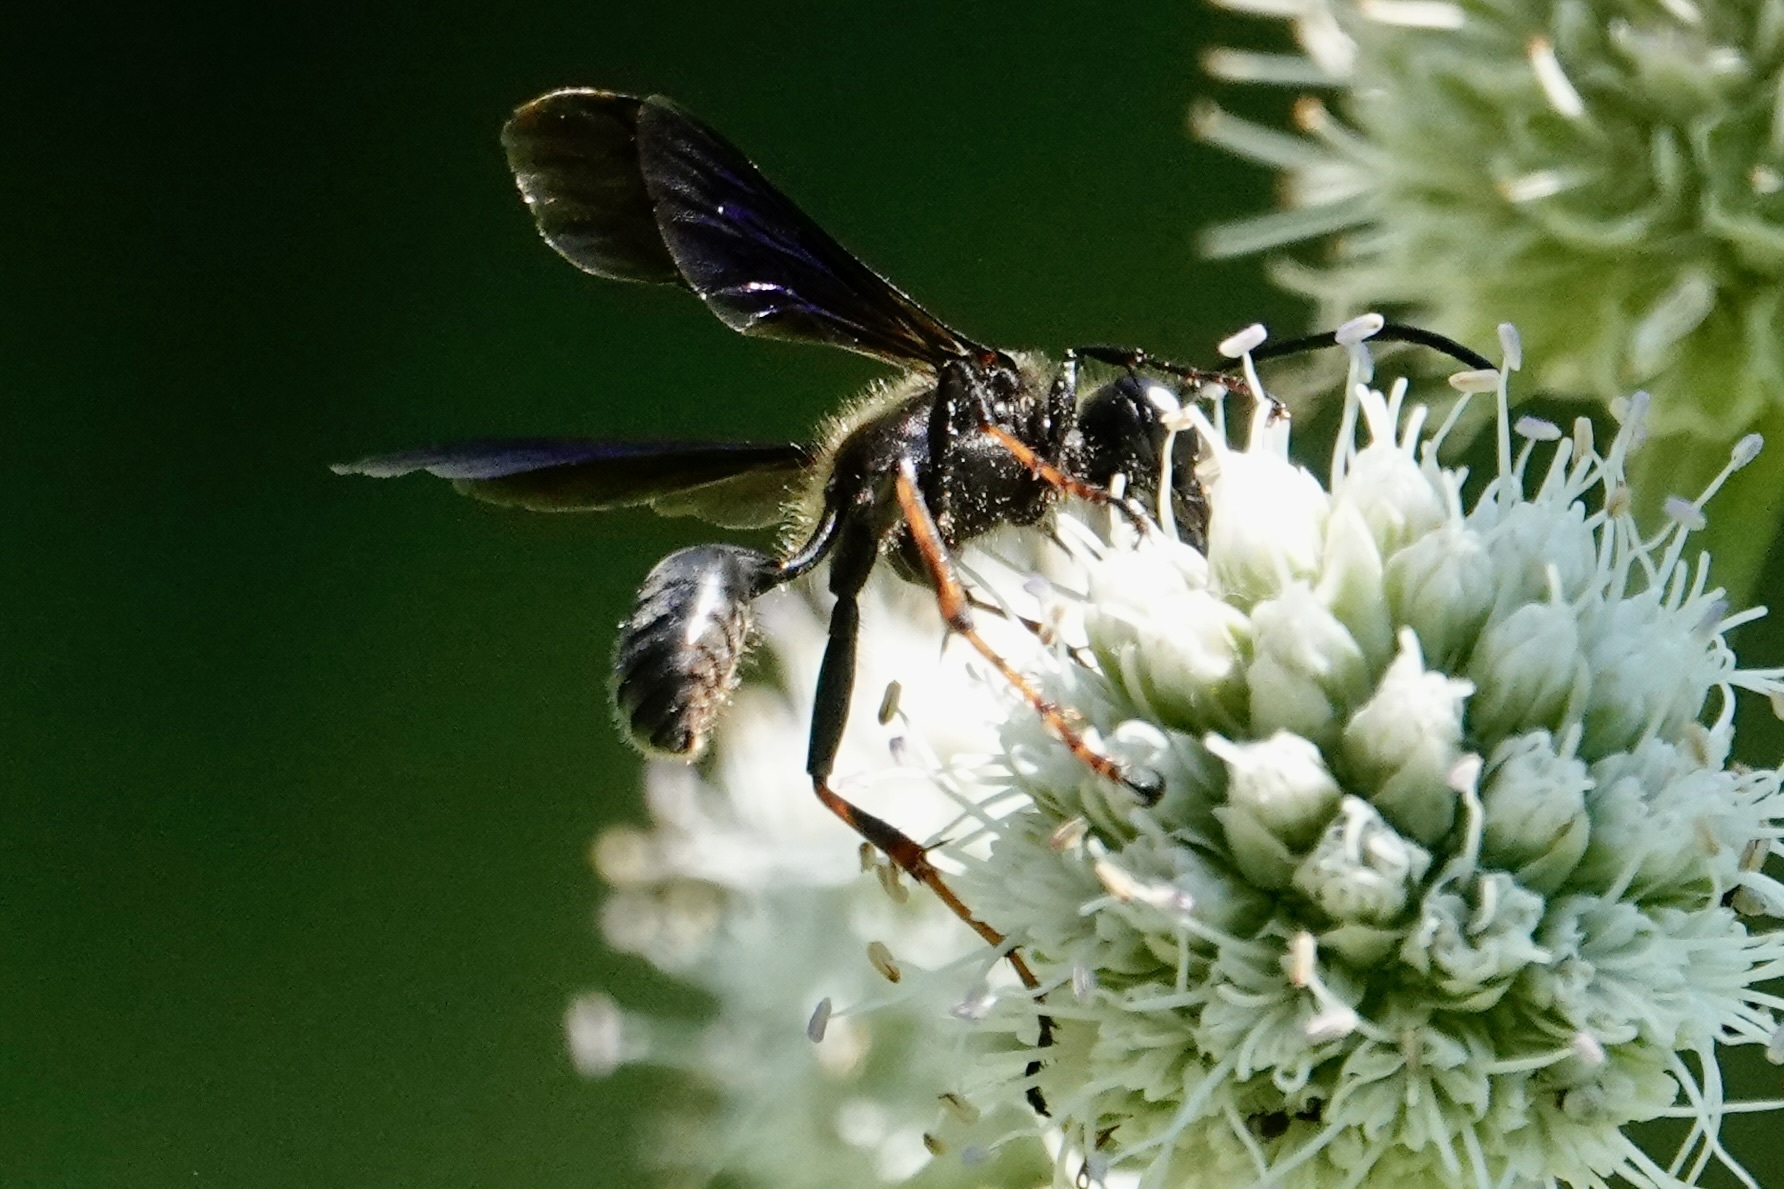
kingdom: Animalia
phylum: Arthropoda
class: Insecta
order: Hymenoptera
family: Sphecidae
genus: Isodontia
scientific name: Isodontia auripes
